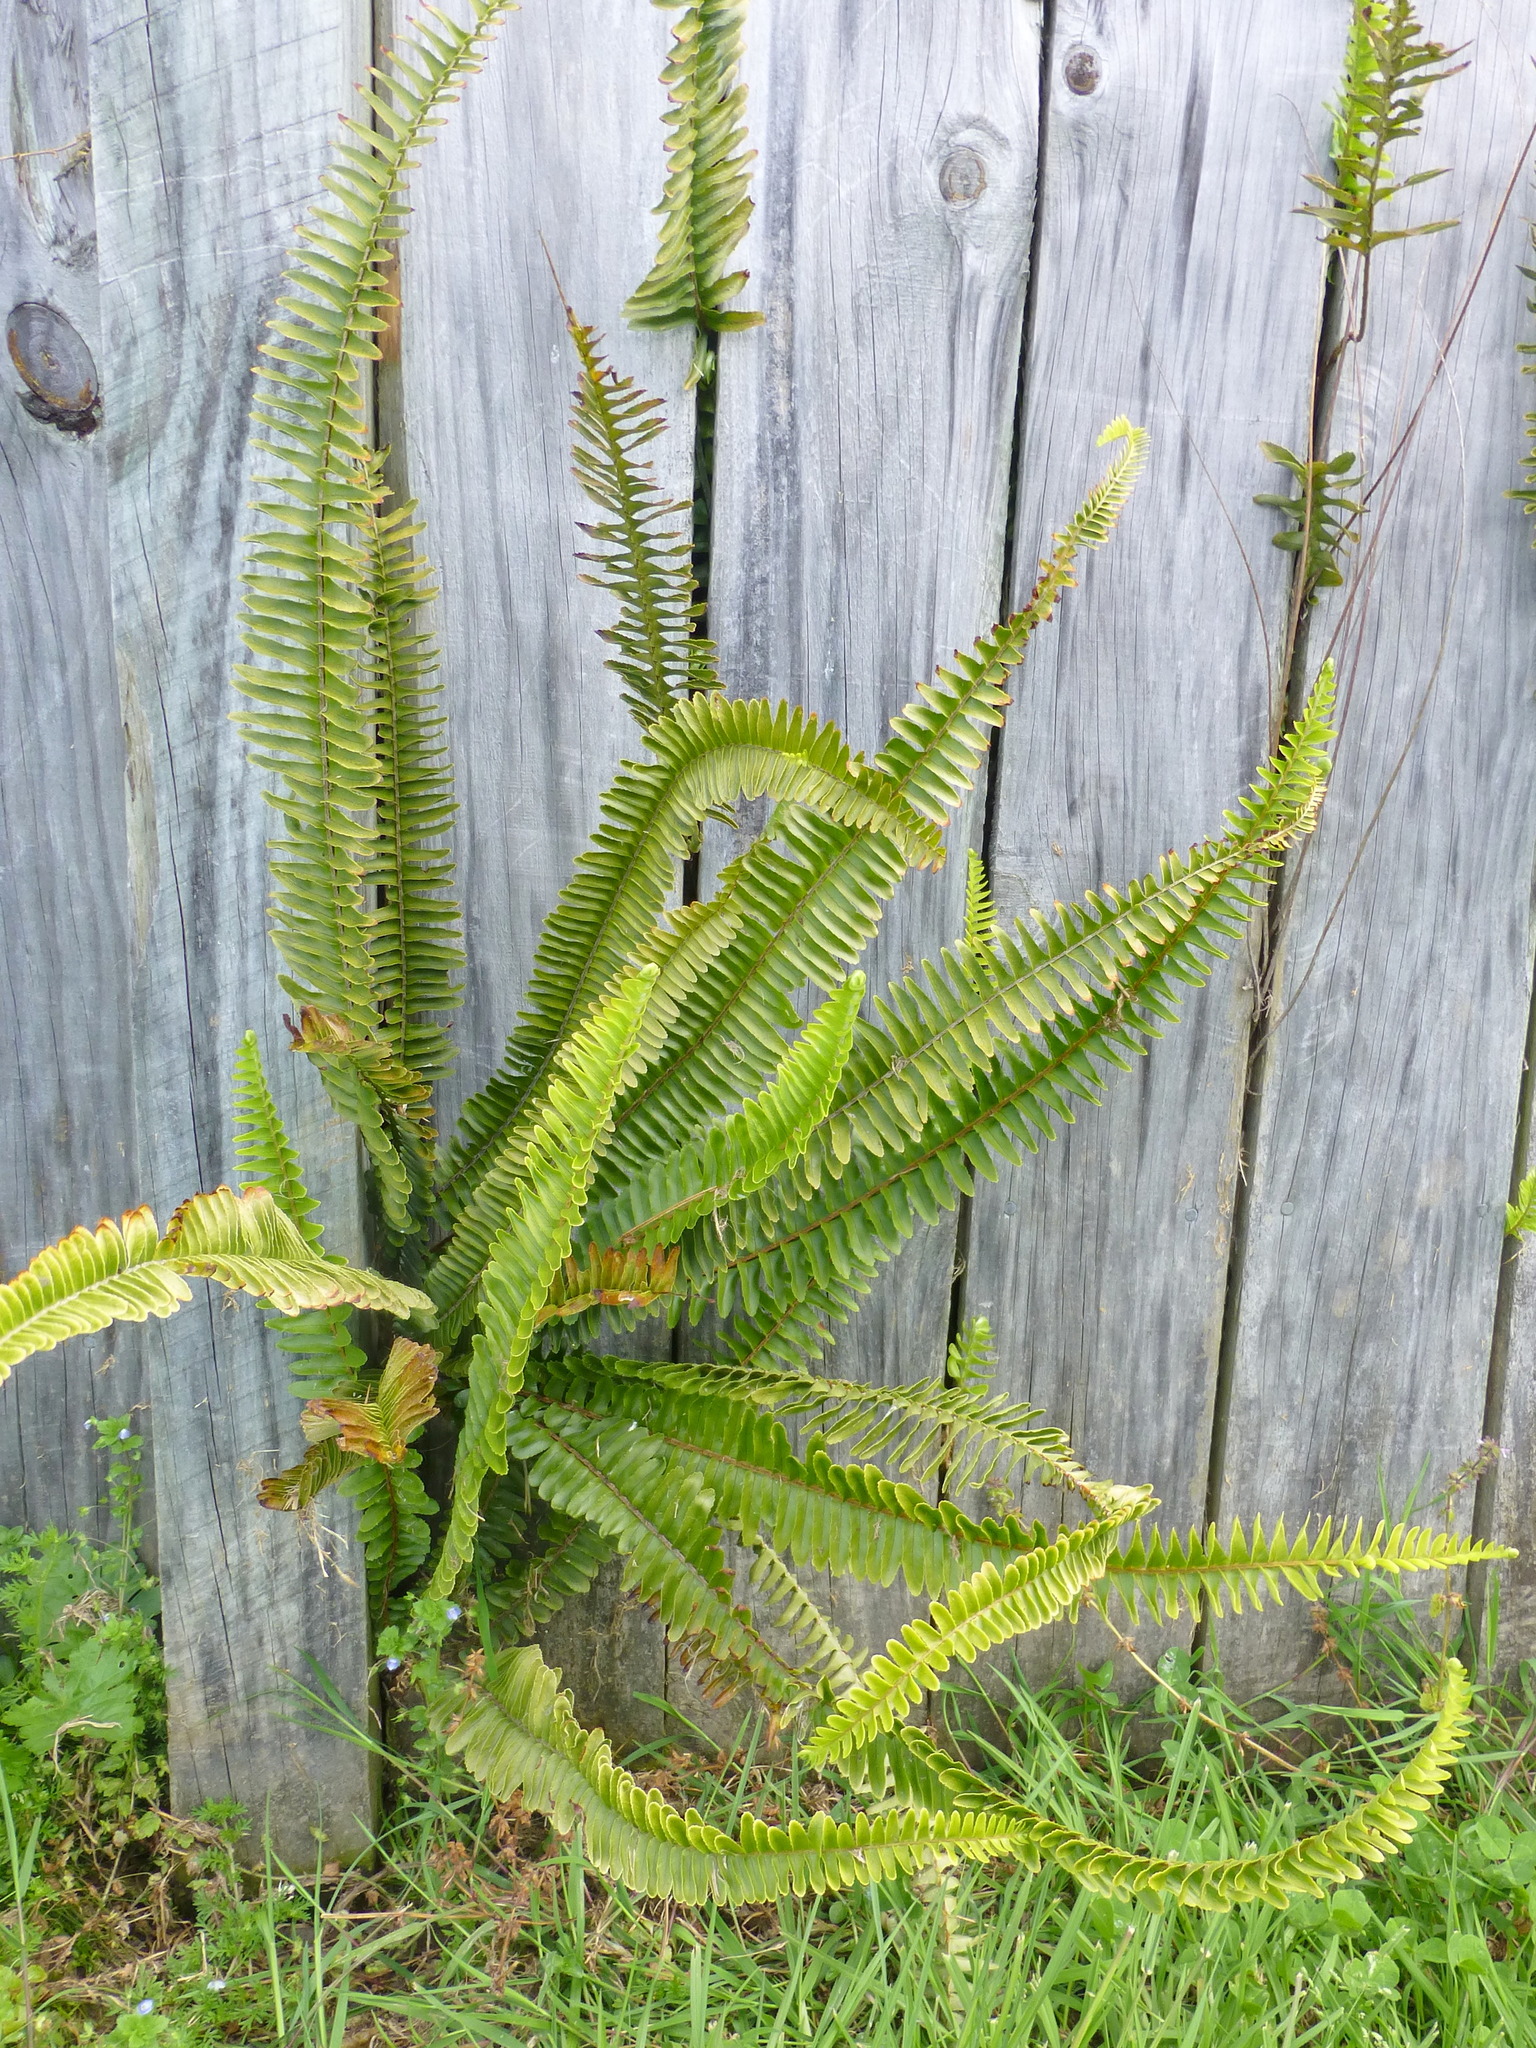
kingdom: Plantae
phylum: Tracheophyta
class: Polypodiopsida
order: Polypodiales
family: Nephrolepidaceae
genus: Nephrolepis
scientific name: Nephrolepis cordifolia
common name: Narrow swordfern
